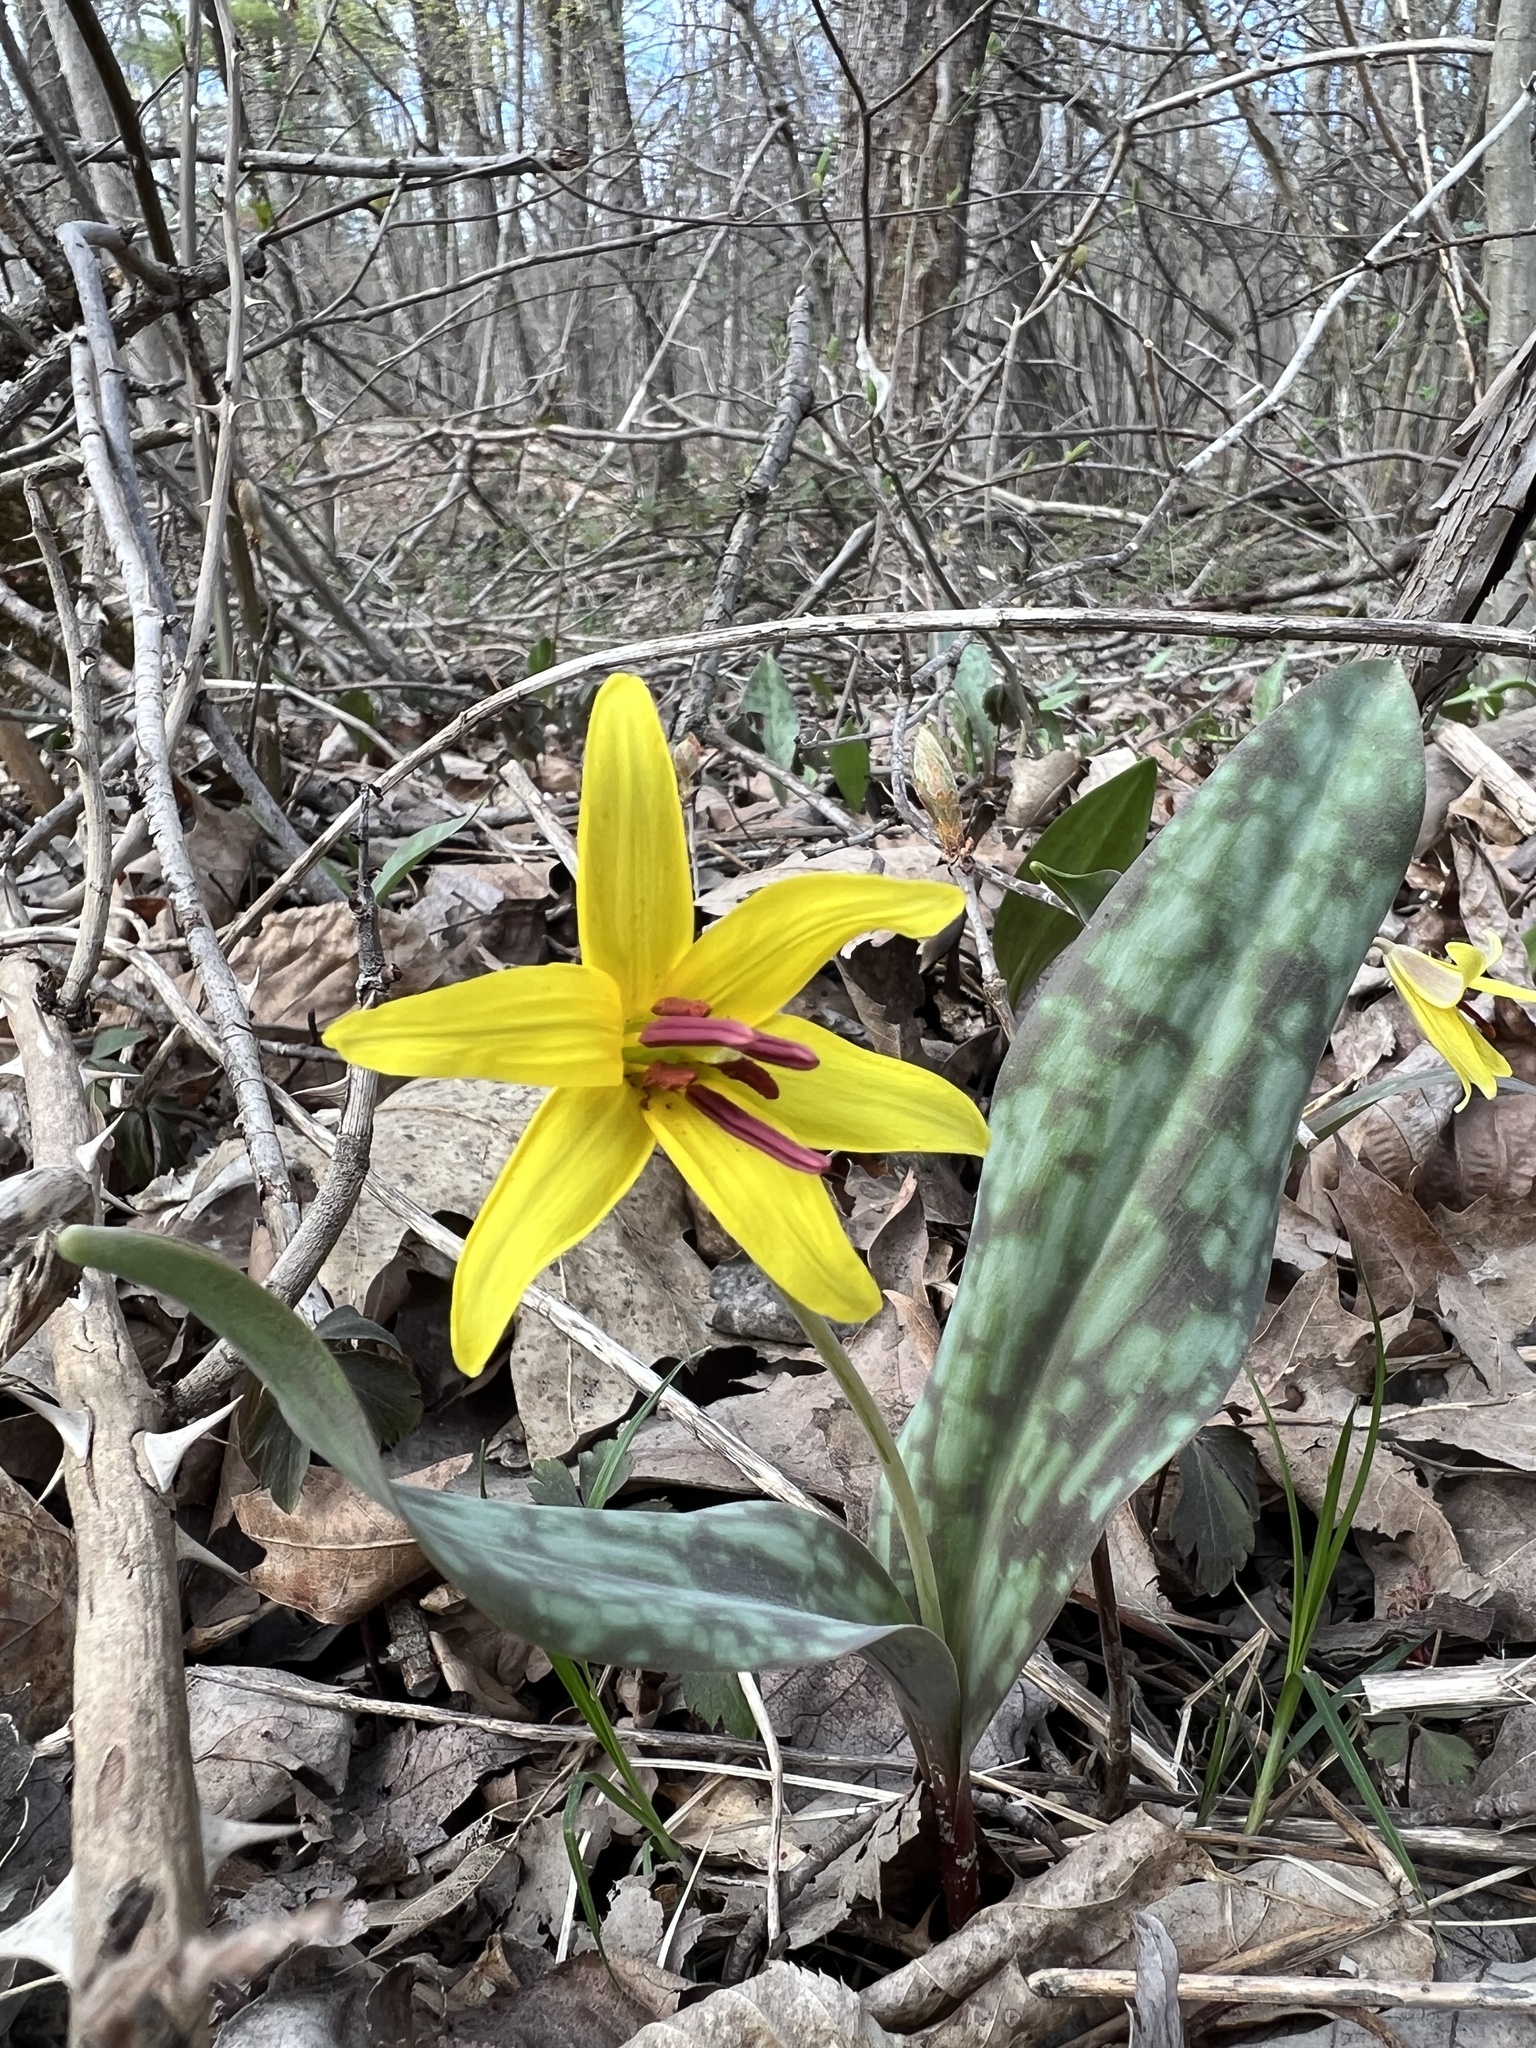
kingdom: Plantae
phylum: Tracheophyta
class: Liliopsida
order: Liliales
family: Liliaceae
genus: Erythronium
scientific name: Erythronium americanum
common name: Yellow adder's-tongue
